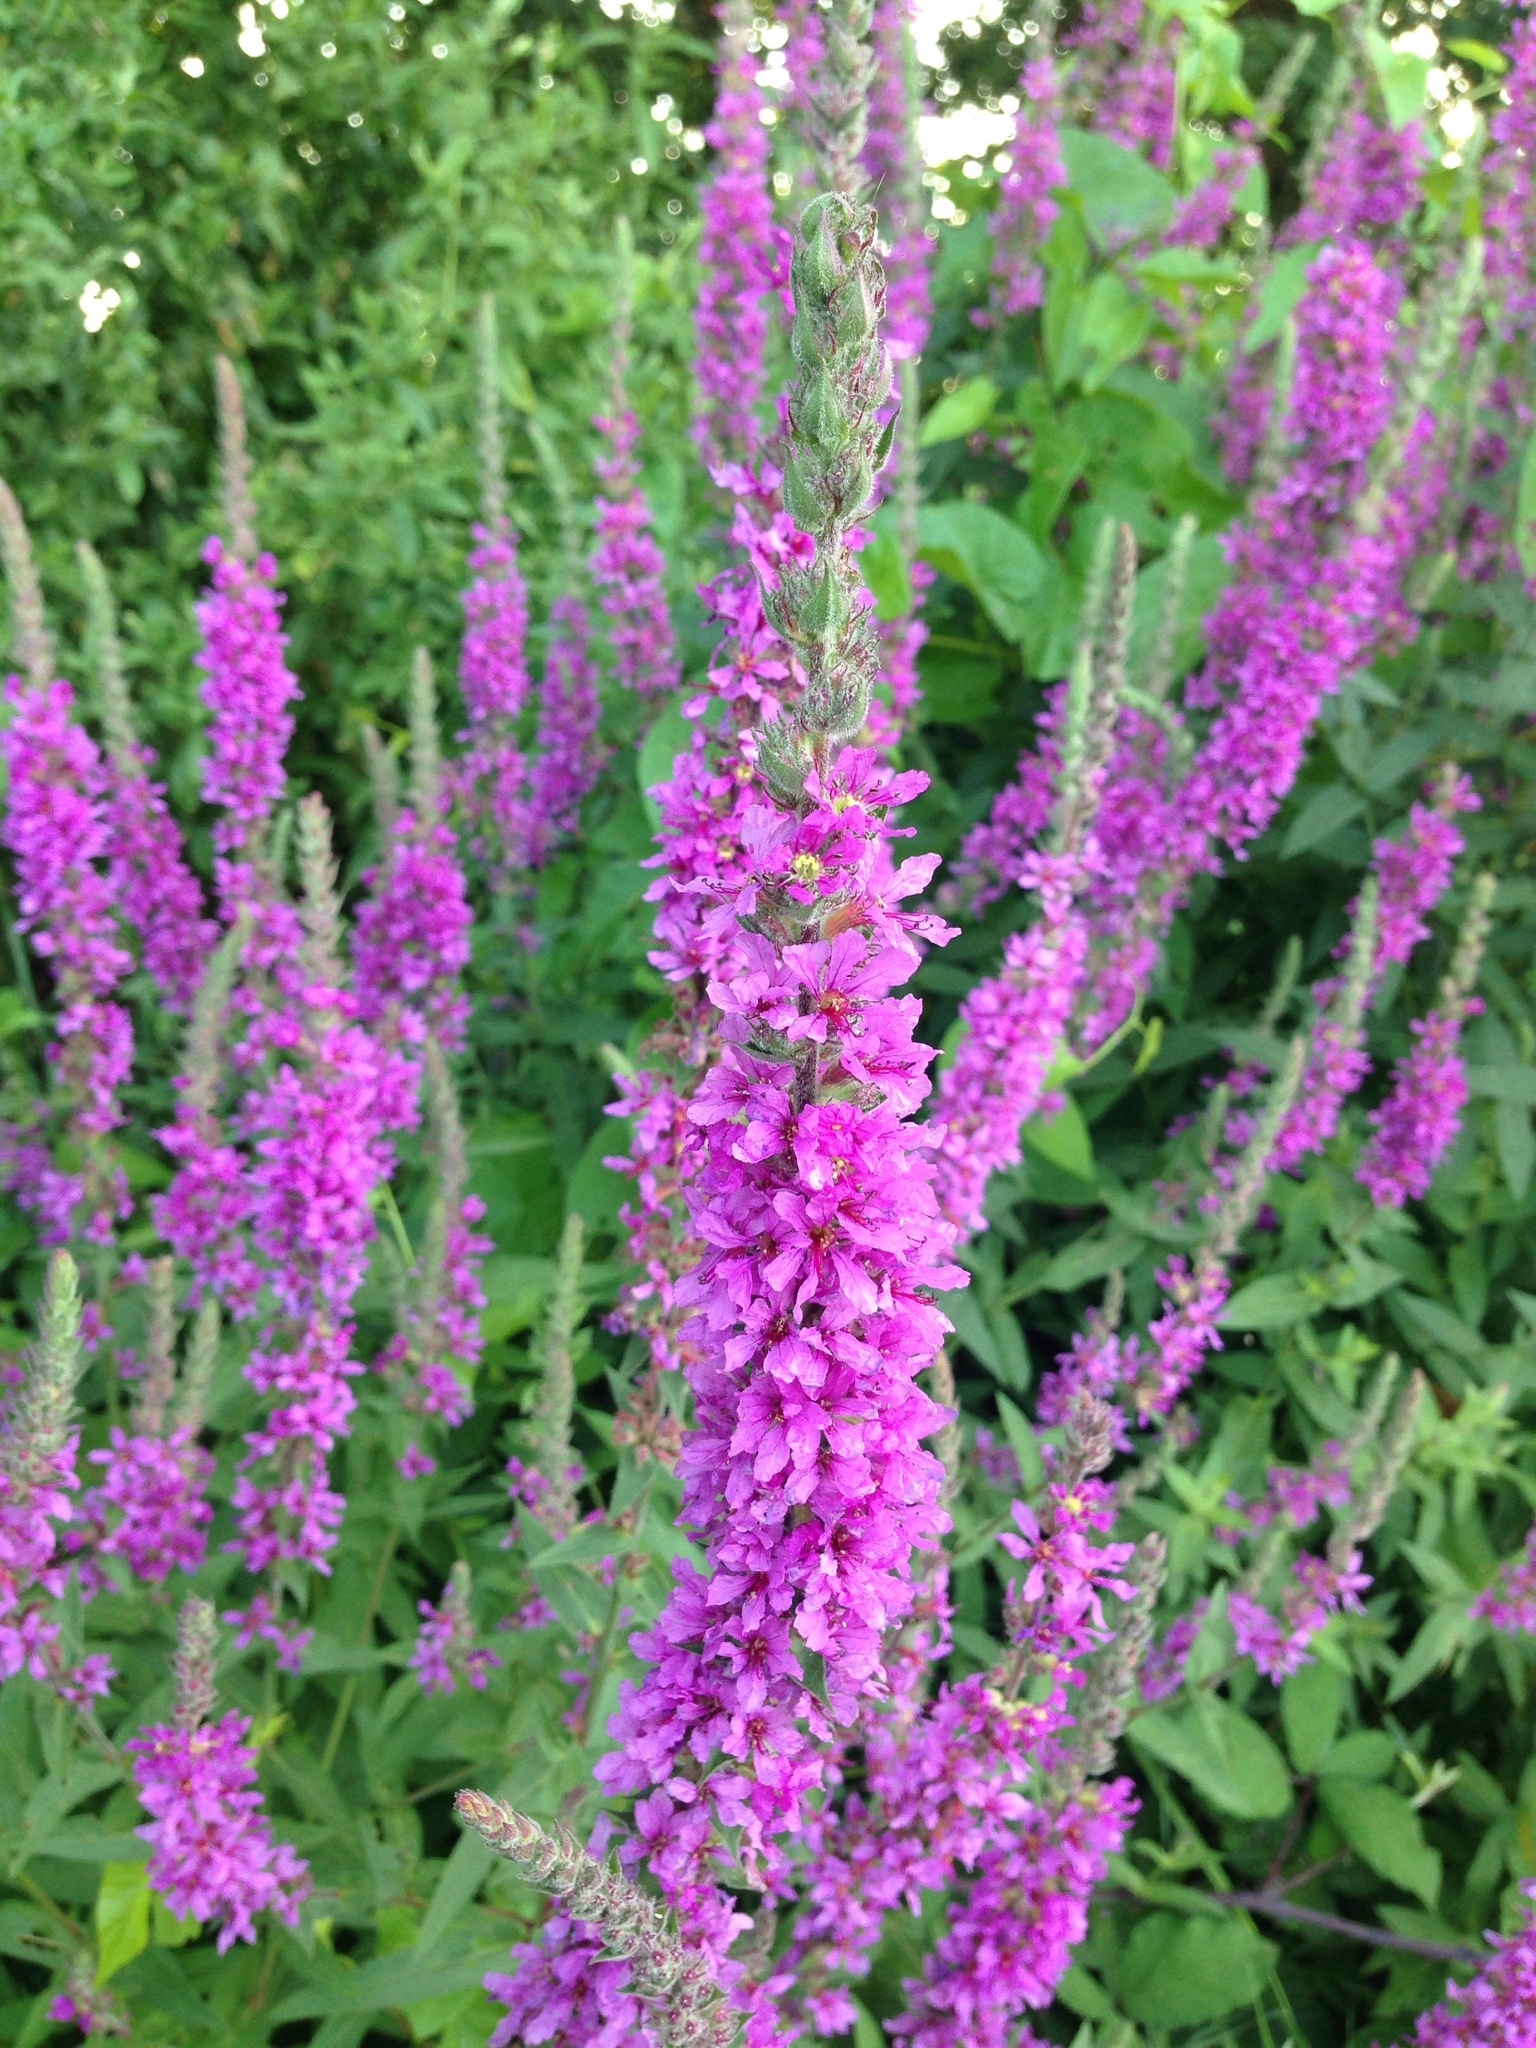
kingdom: Plantae
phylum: Tracheophyta
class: Magnoliopsida
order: Myrtales
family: Lythraceae
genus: Lythrum
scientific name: Lythrum salicaria
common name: Purple loosestrife
